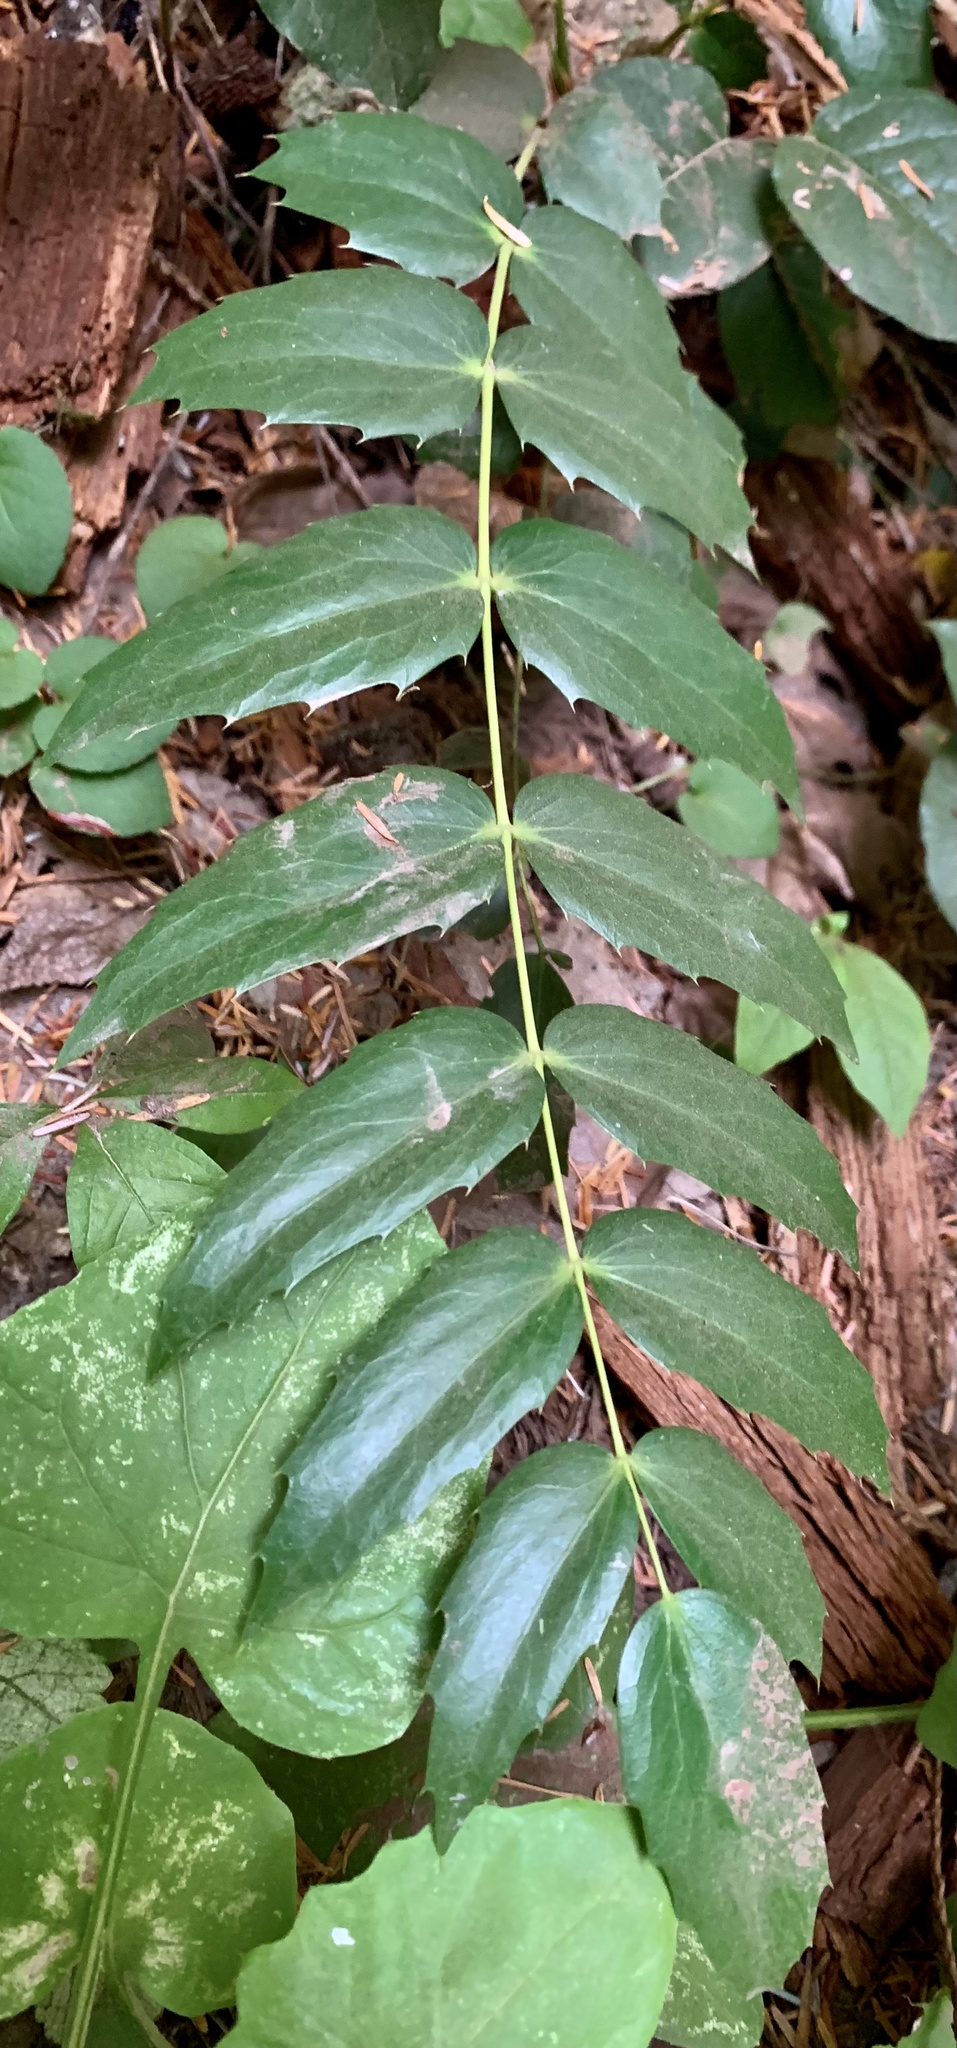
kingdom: Plantae
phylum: Tracheophyta
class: Magnoliopsida
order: Ranunculales
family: Berberidaceae
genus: Mahonia
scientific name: Mahonia nervosa
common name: Cascade oregon-grape
